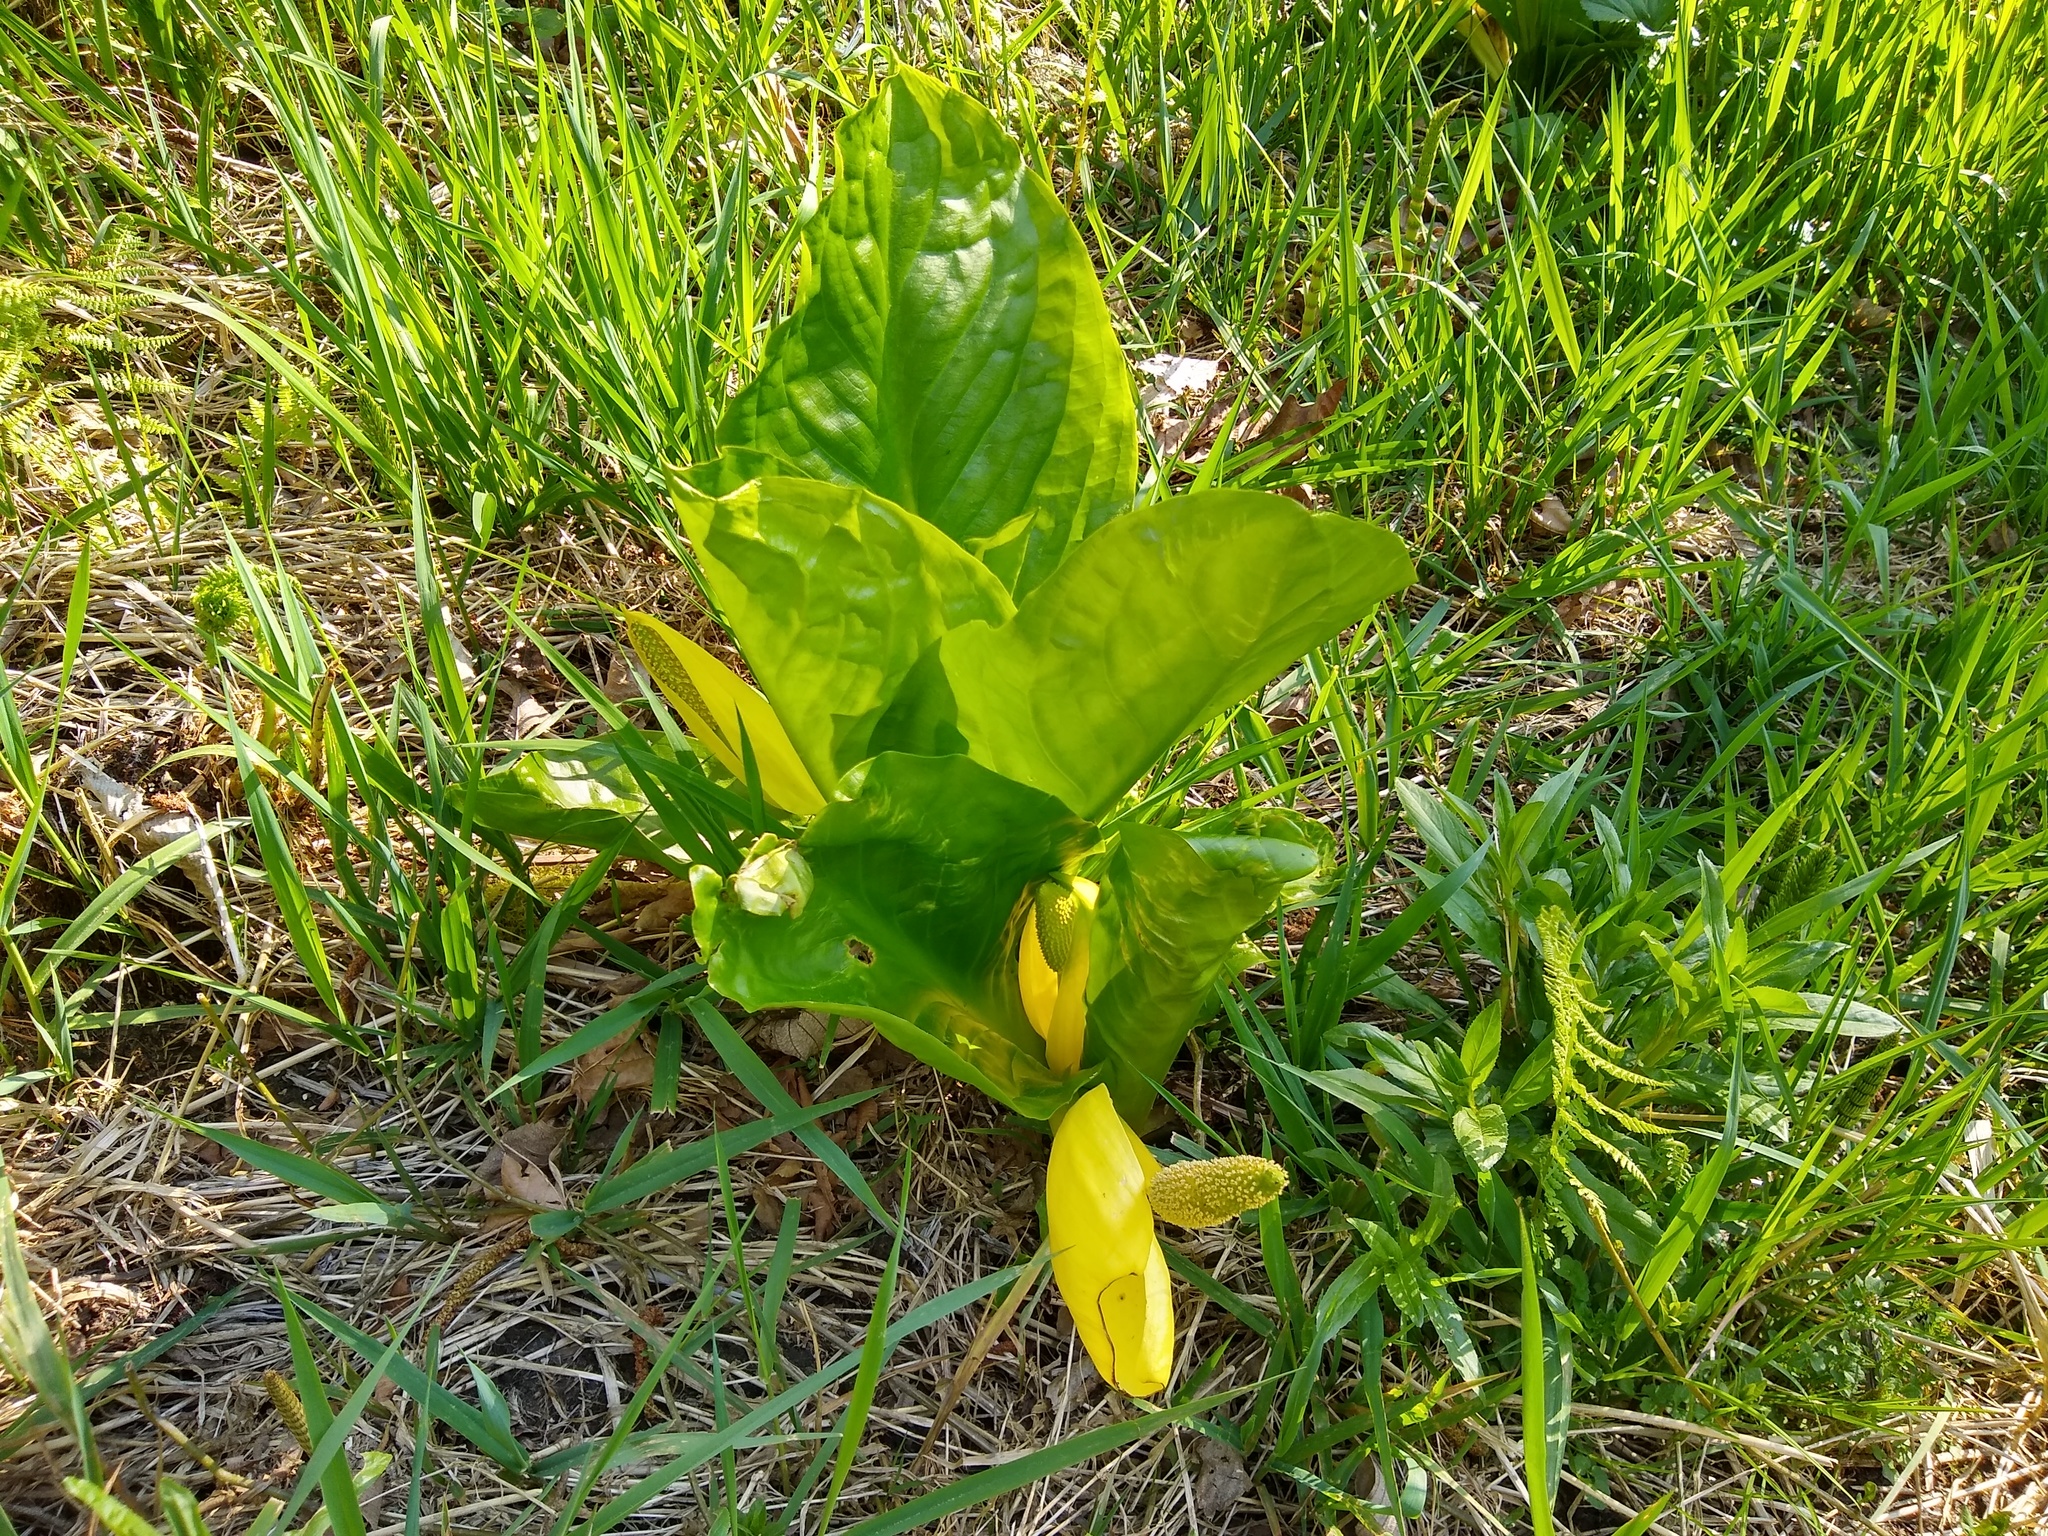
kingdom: Plantae
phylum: Tracheophyta
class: Liliopsida
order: Alismatales
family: Araceae
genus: Lysichiton
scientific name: Lysichiton americanus
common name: American skunk cabbage
